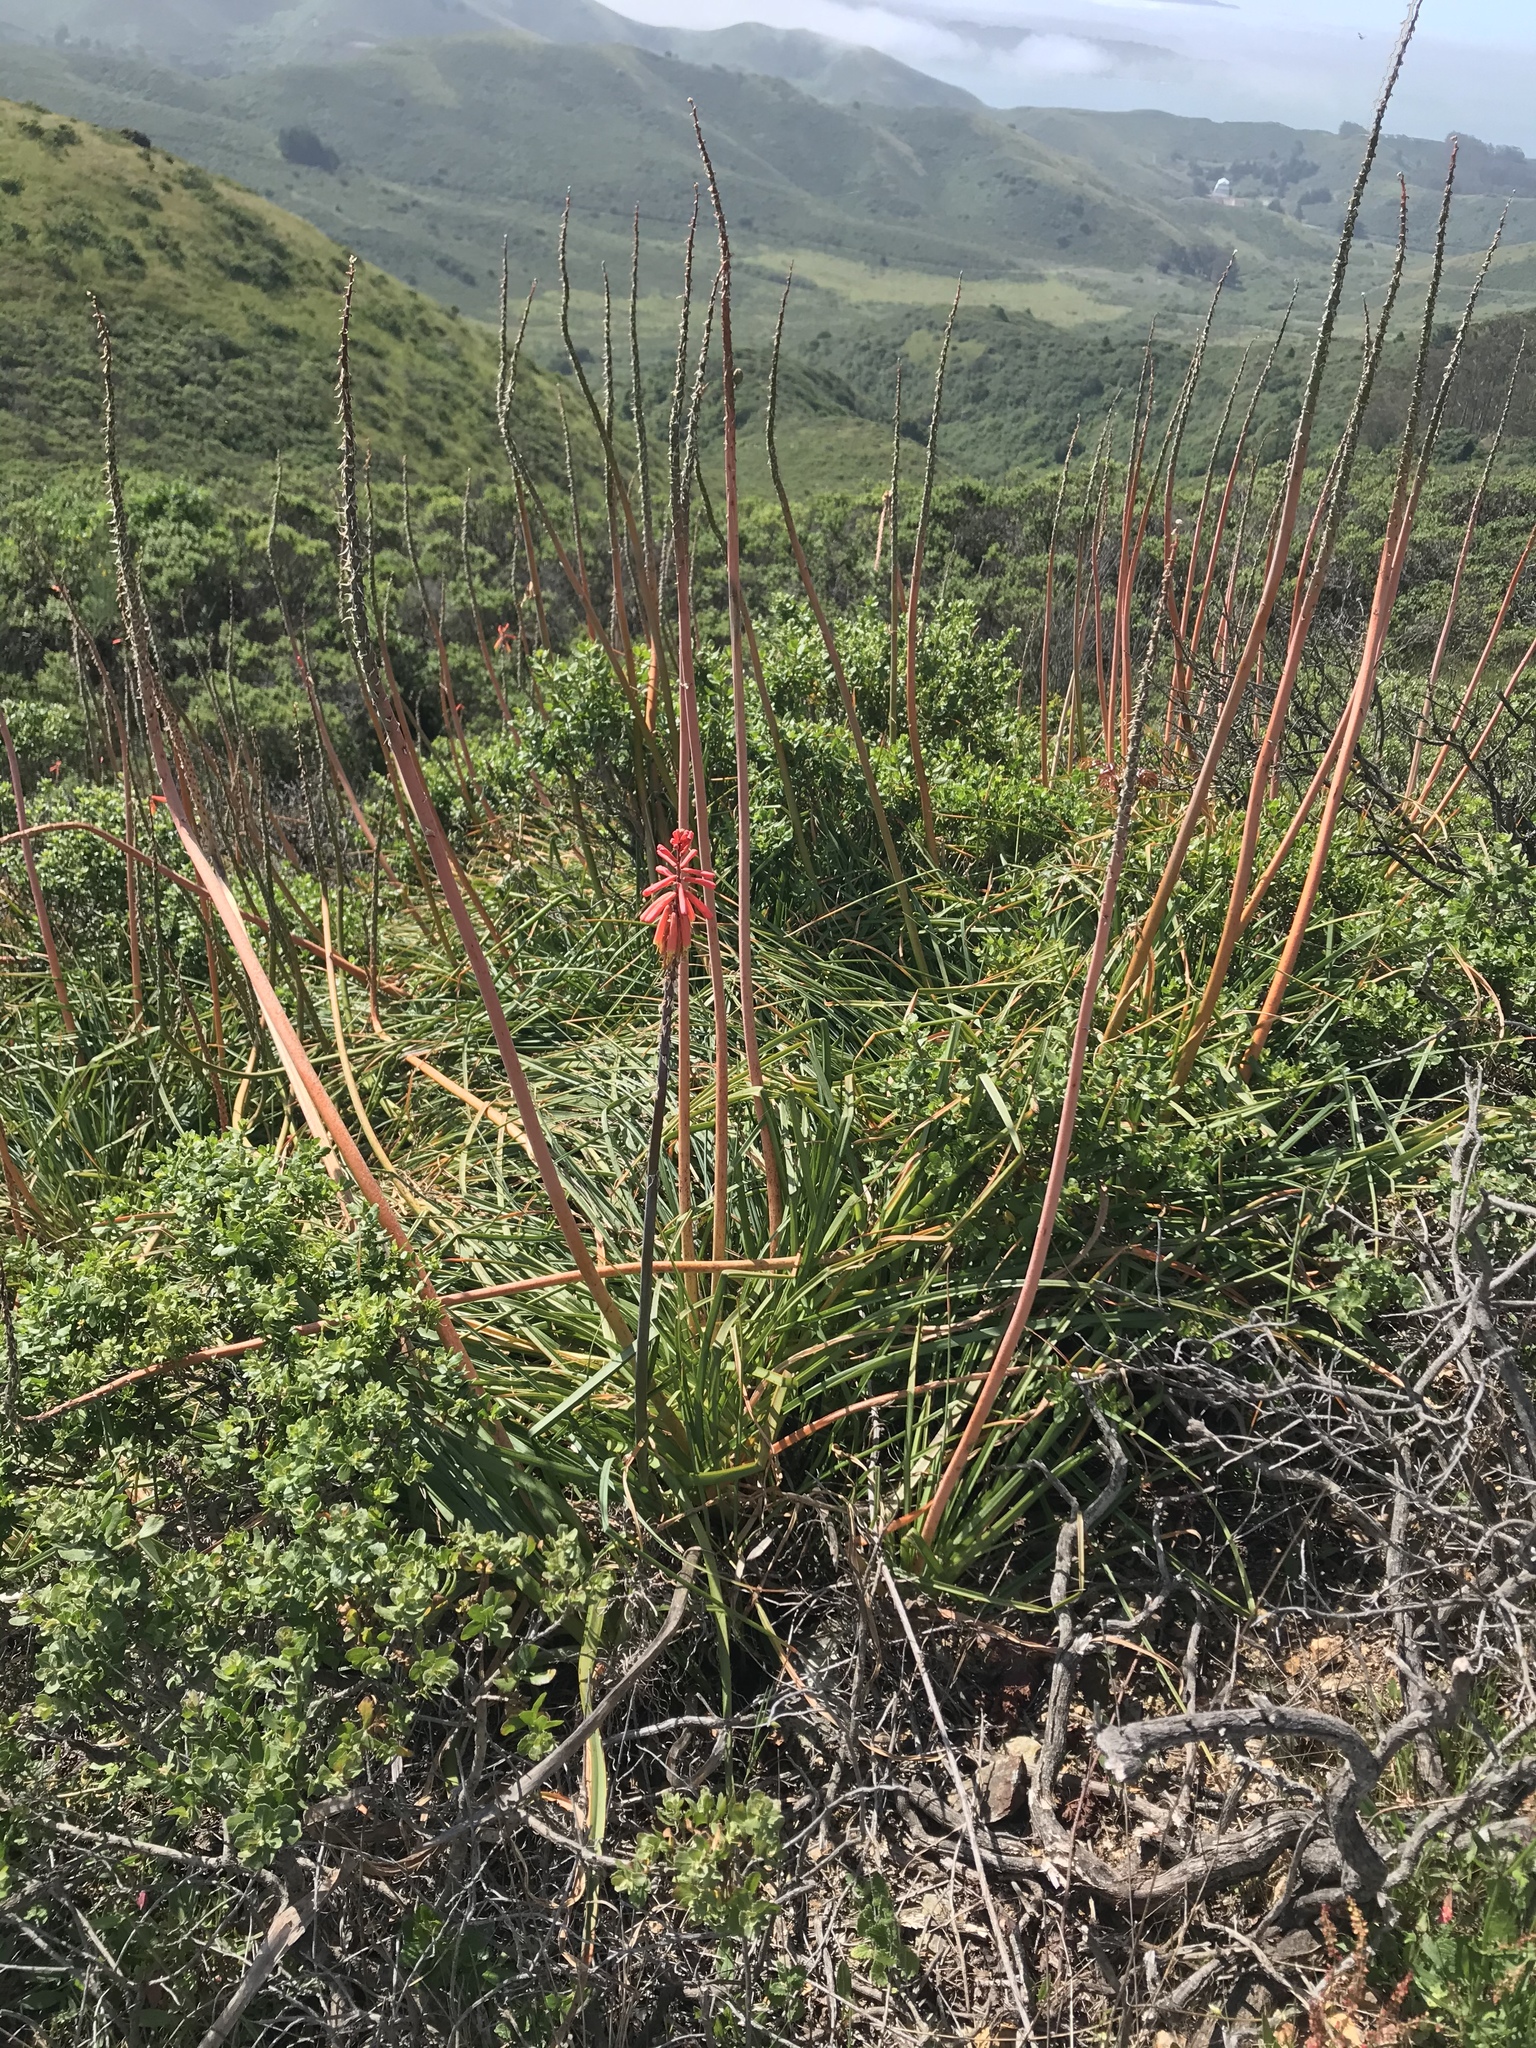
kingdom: Plantae
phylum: Tracheophyta
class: Liliopsida
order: Asparagales
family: Asphodelaceae
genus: Kniphofia
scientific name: Kniphofia uvaria
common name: Red-hot-poker
